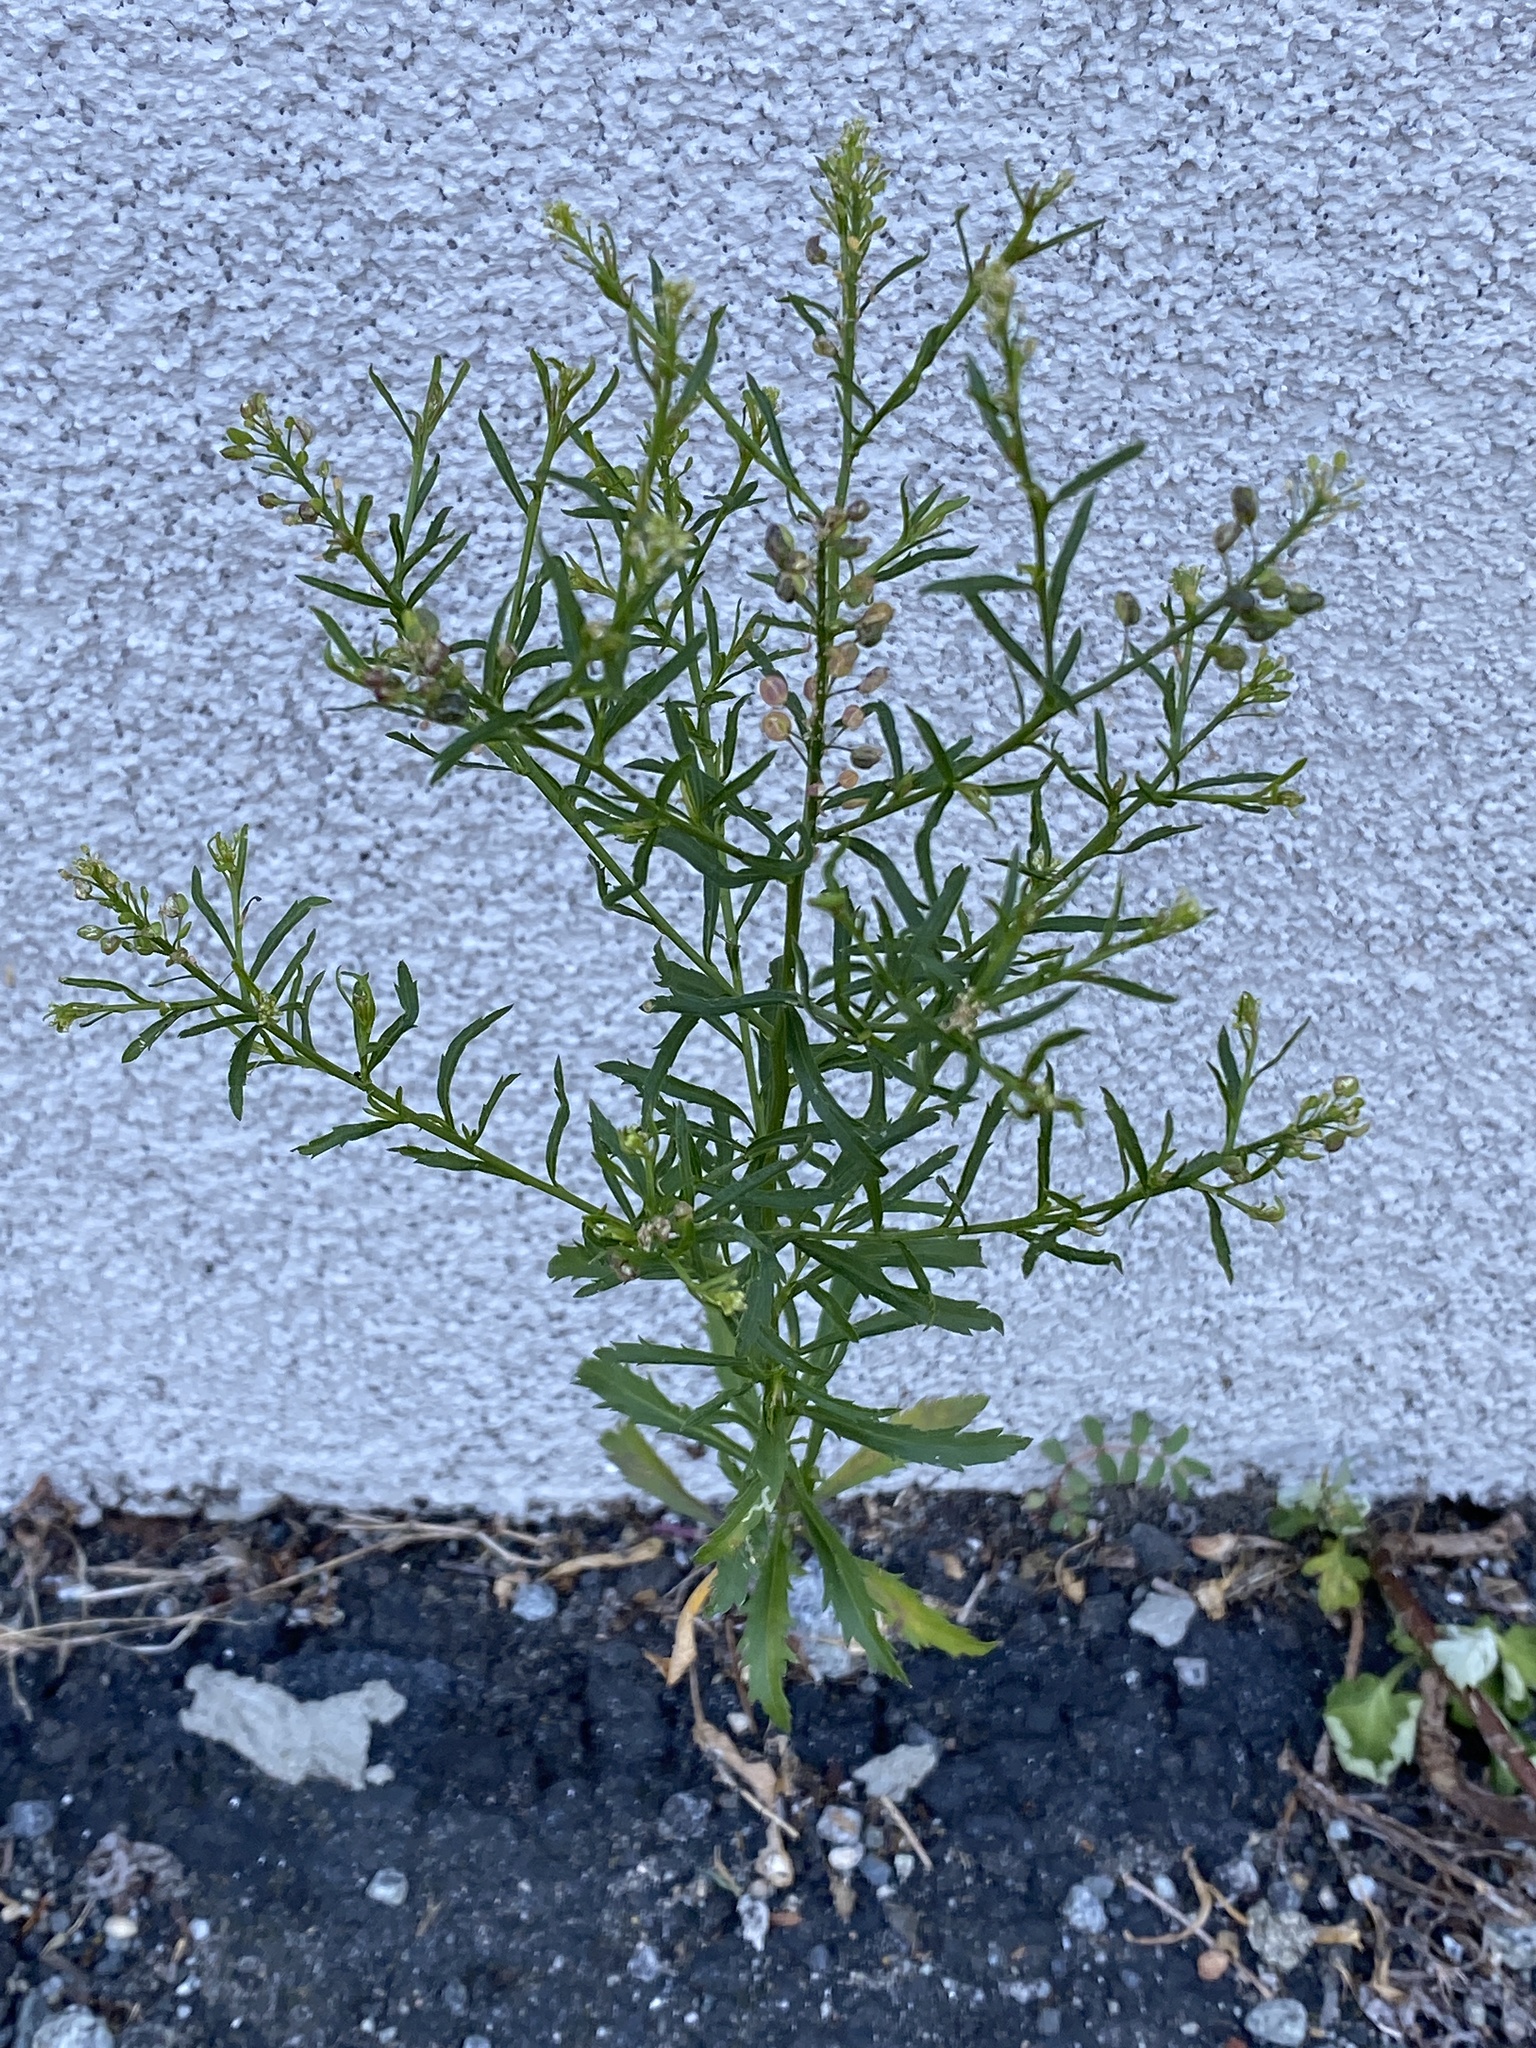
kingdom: Plantae
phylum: Tracheophyta
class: Magnoliopsida
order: Asterales
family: Asteraceae
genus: Erigeron
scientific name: Erigeron canadensis
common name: Canadian fleabane
